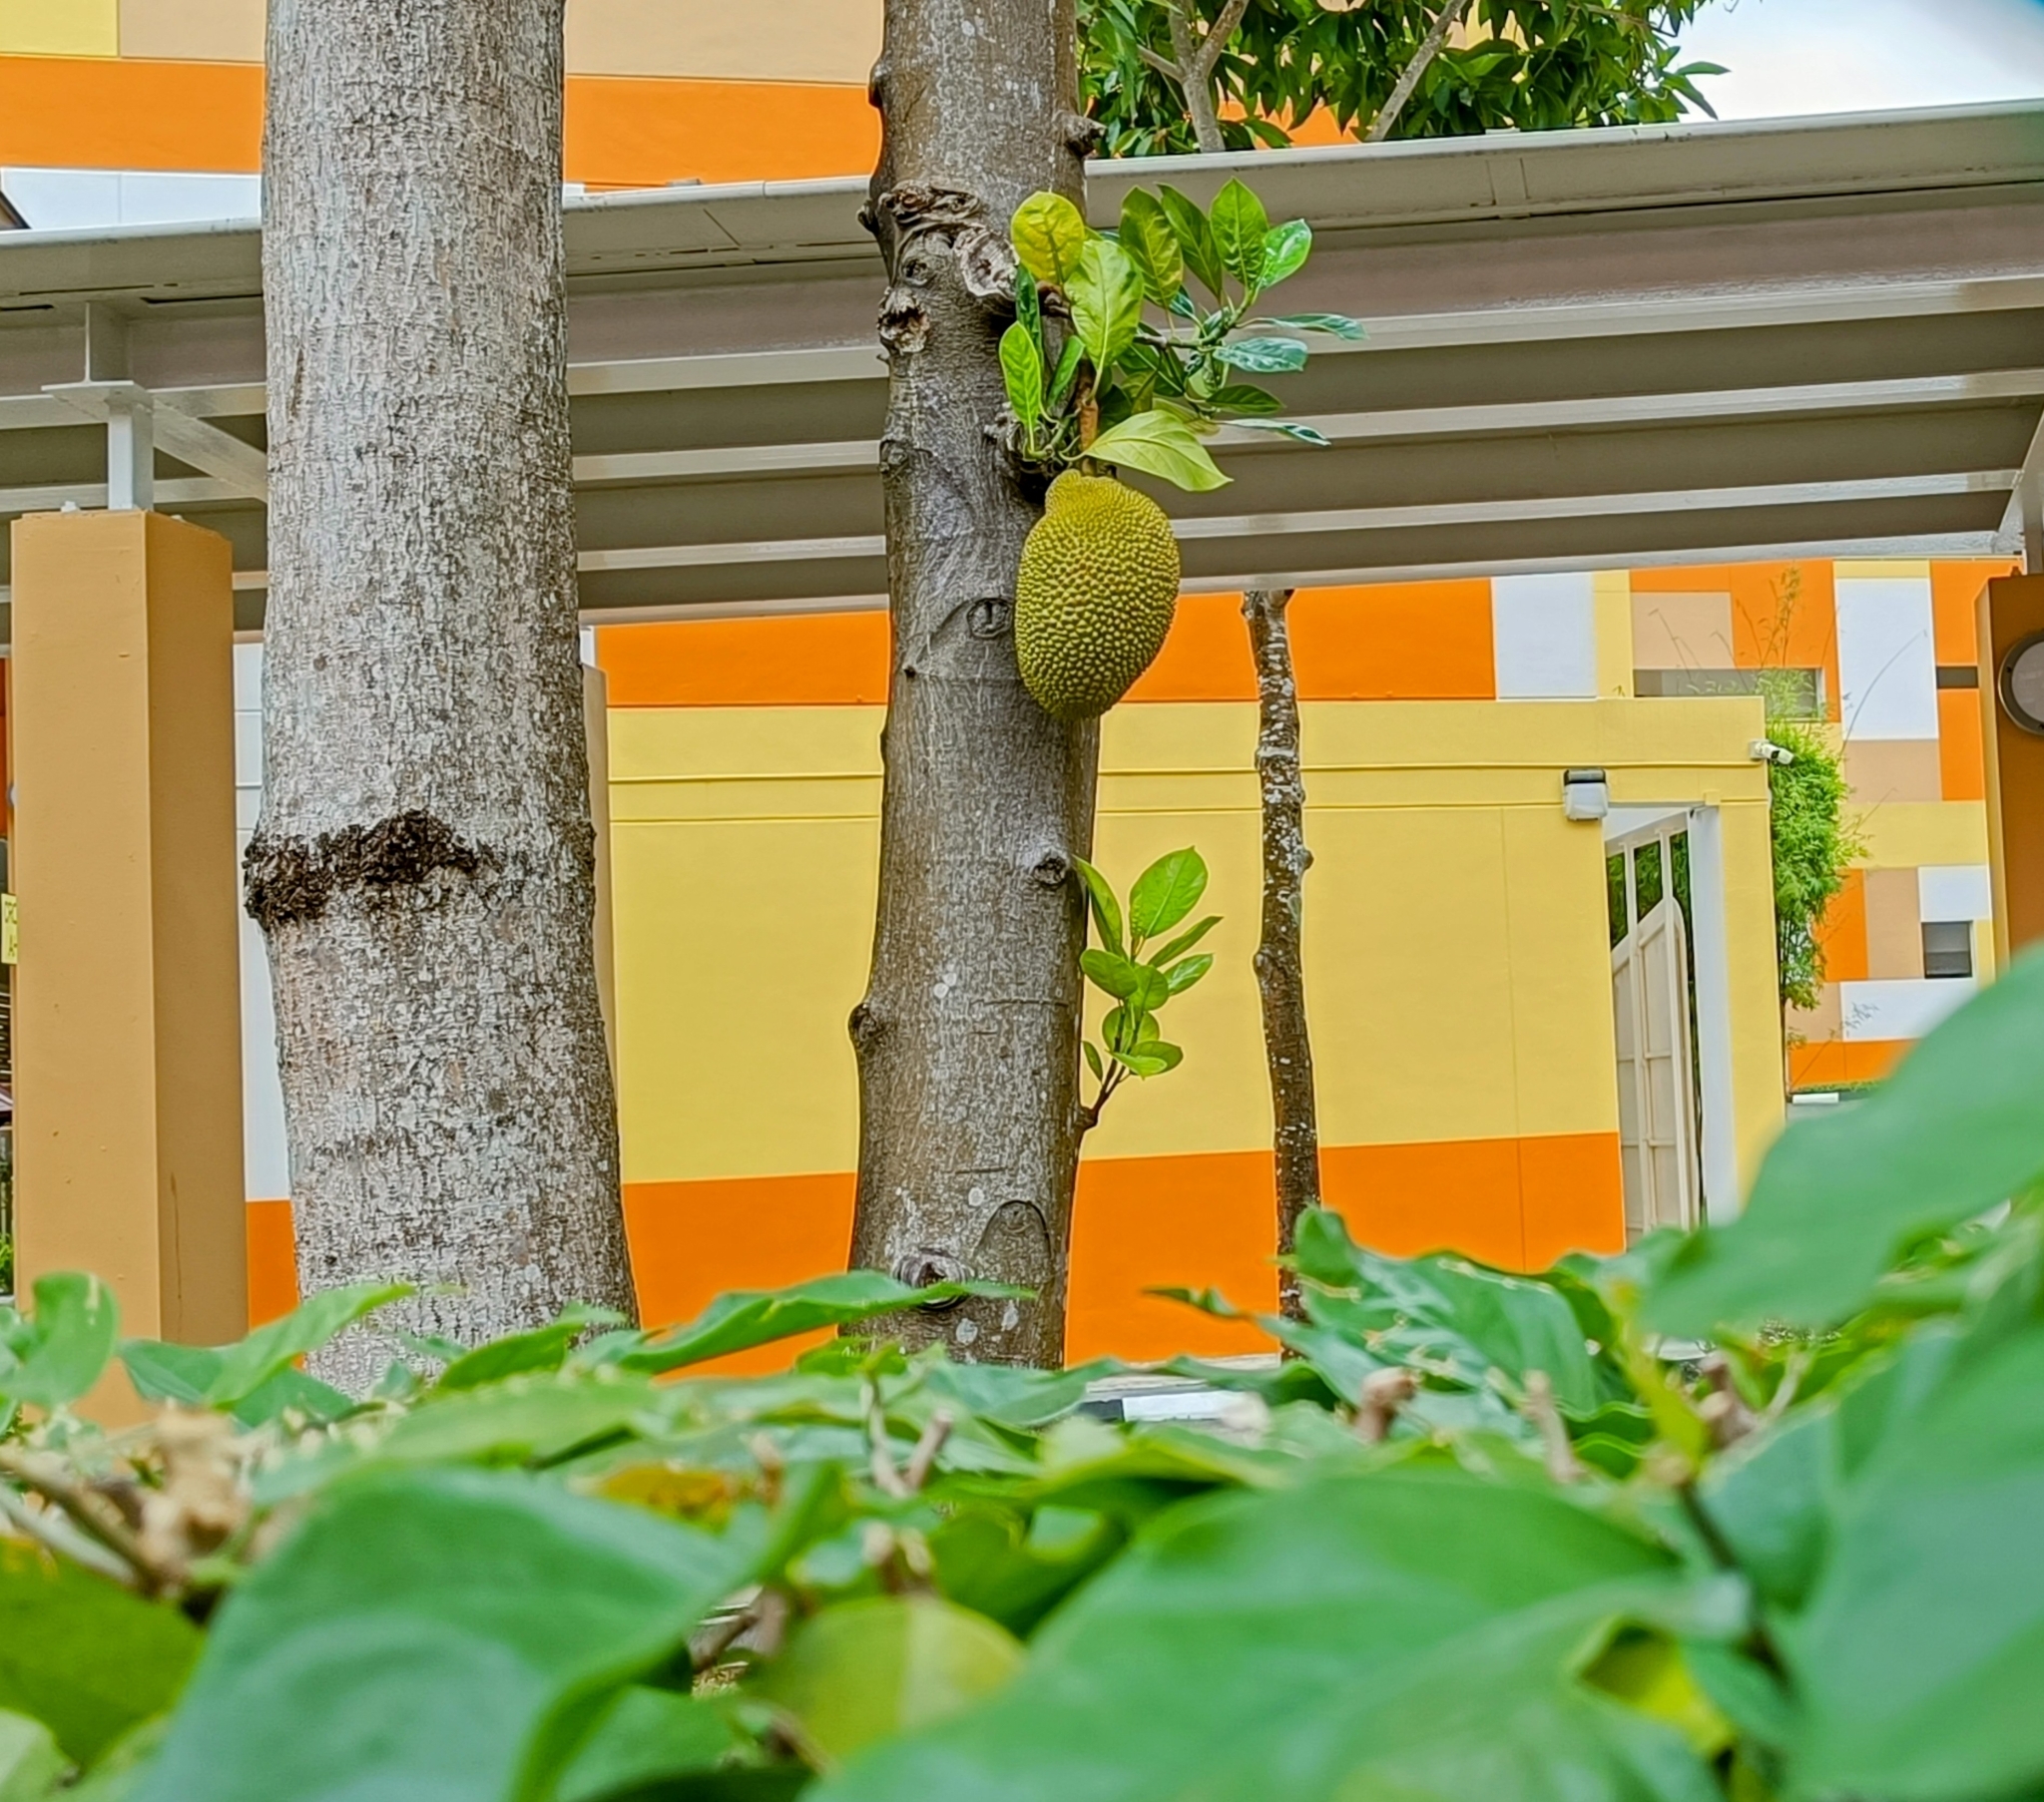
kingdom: Plantae
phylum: Tracheophyta
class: Magnoliopsida
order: Rosales
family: Moraceae
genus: Artocarpus
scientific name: Artocarpus heterophyllus
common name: Jackfruit
